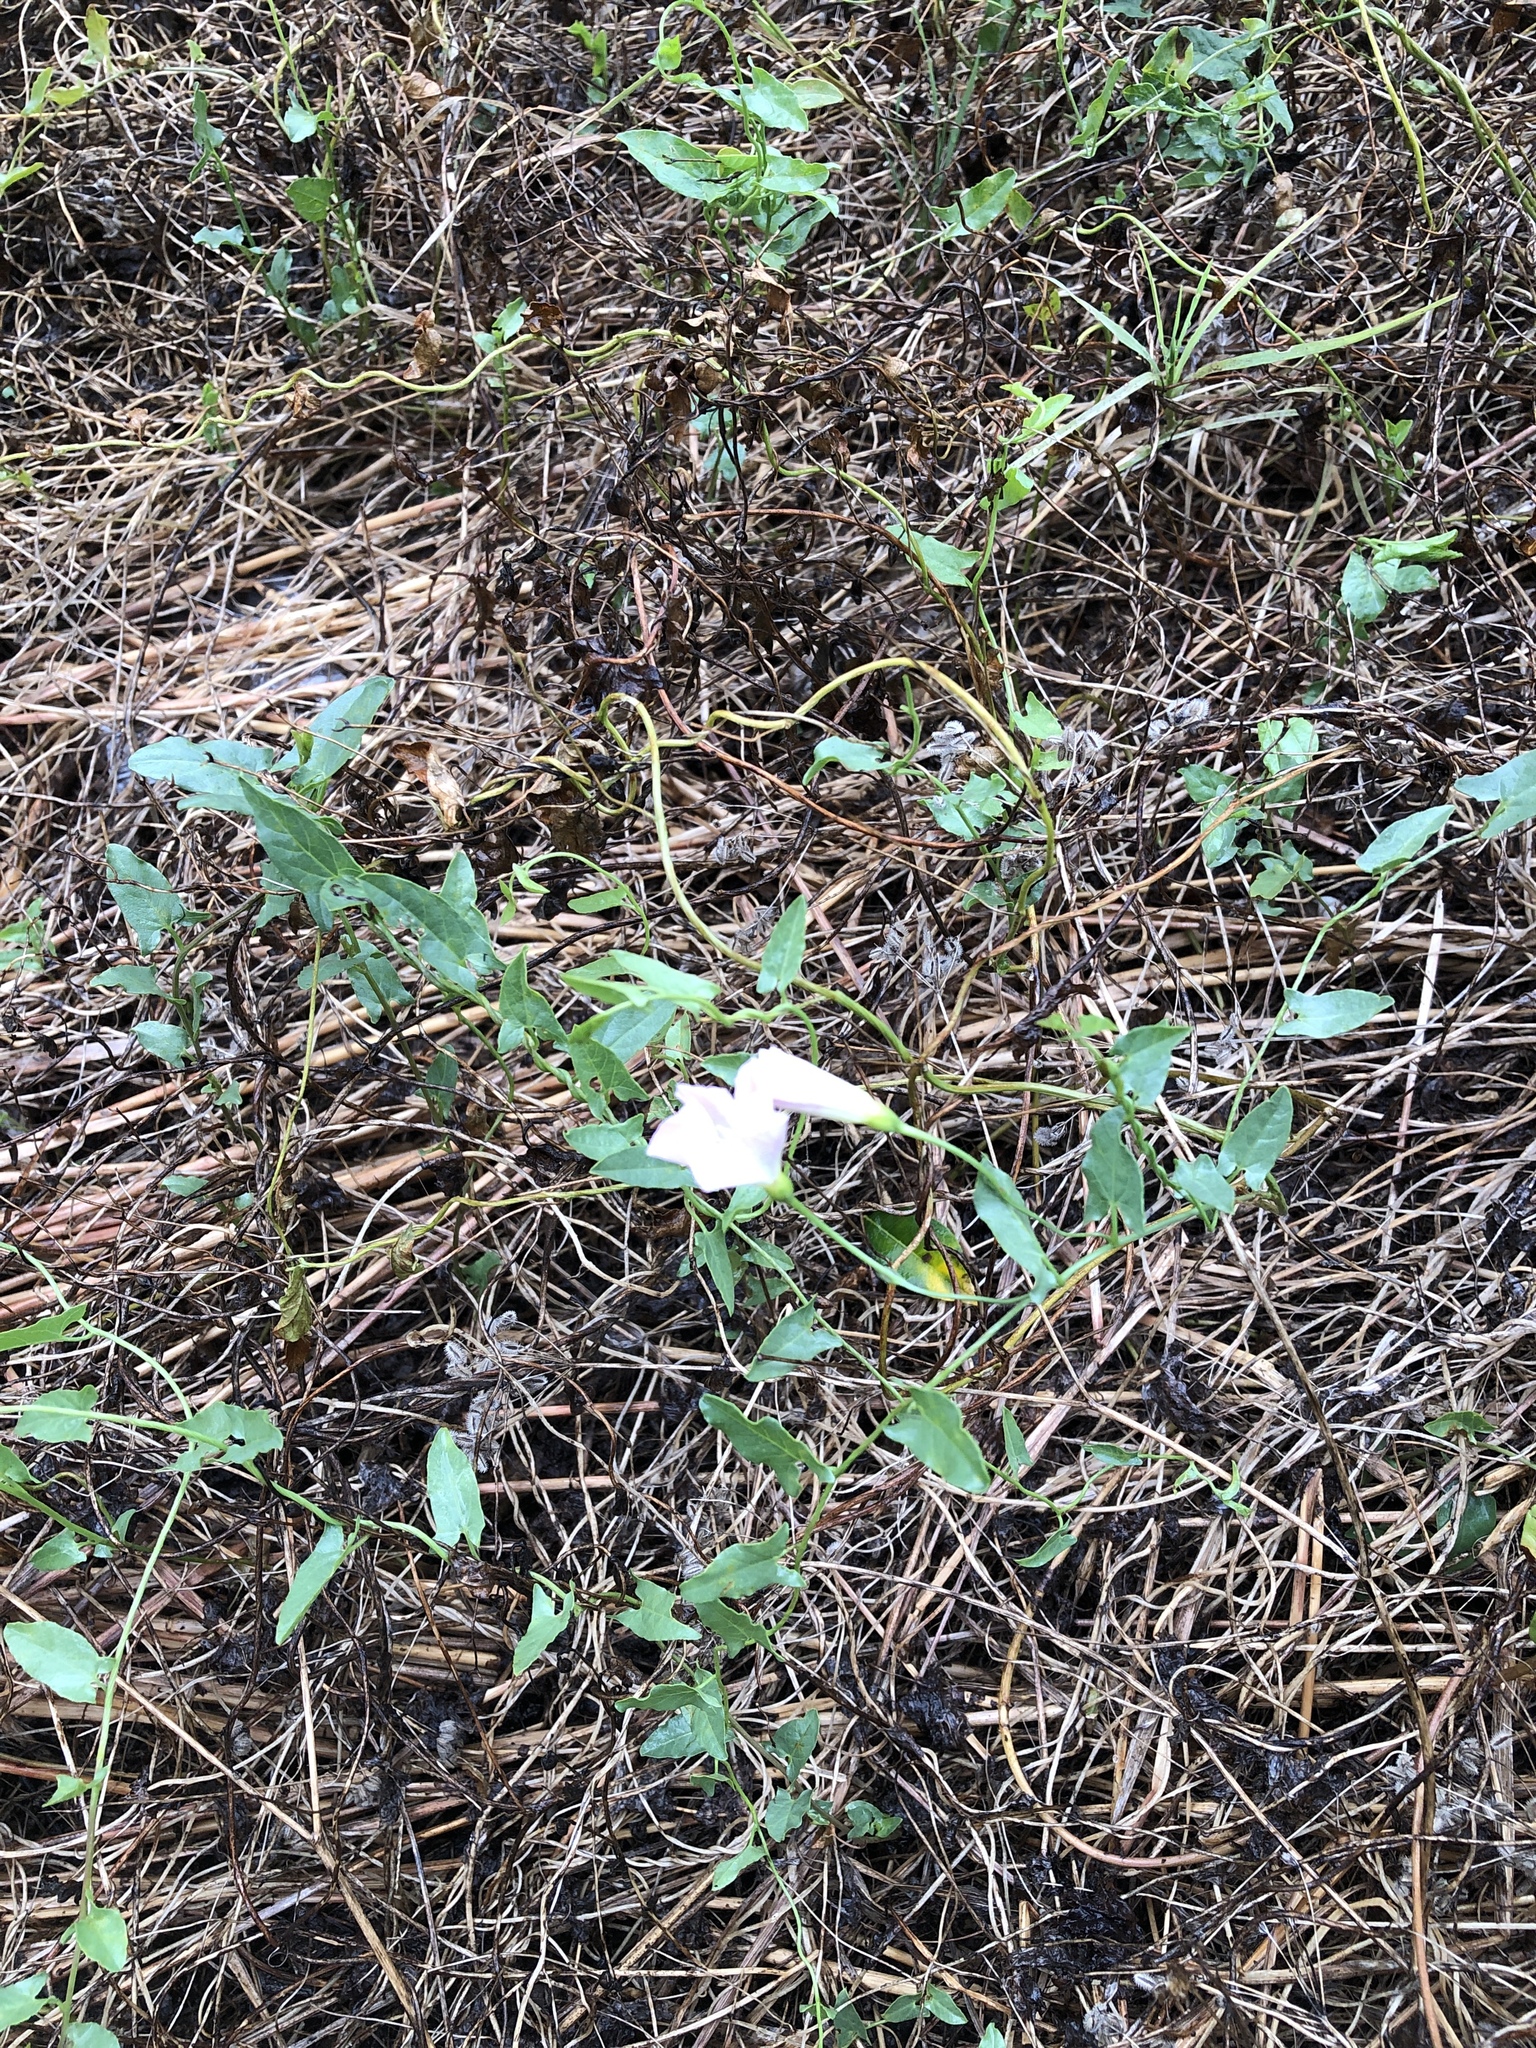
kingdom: Plantae
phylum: Tracheophyta
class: Magnoliopsida
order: Solanales
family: Convolvulaceae
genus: Convolvulus
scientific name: Convolvulus arvensis
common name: Field bindweed
